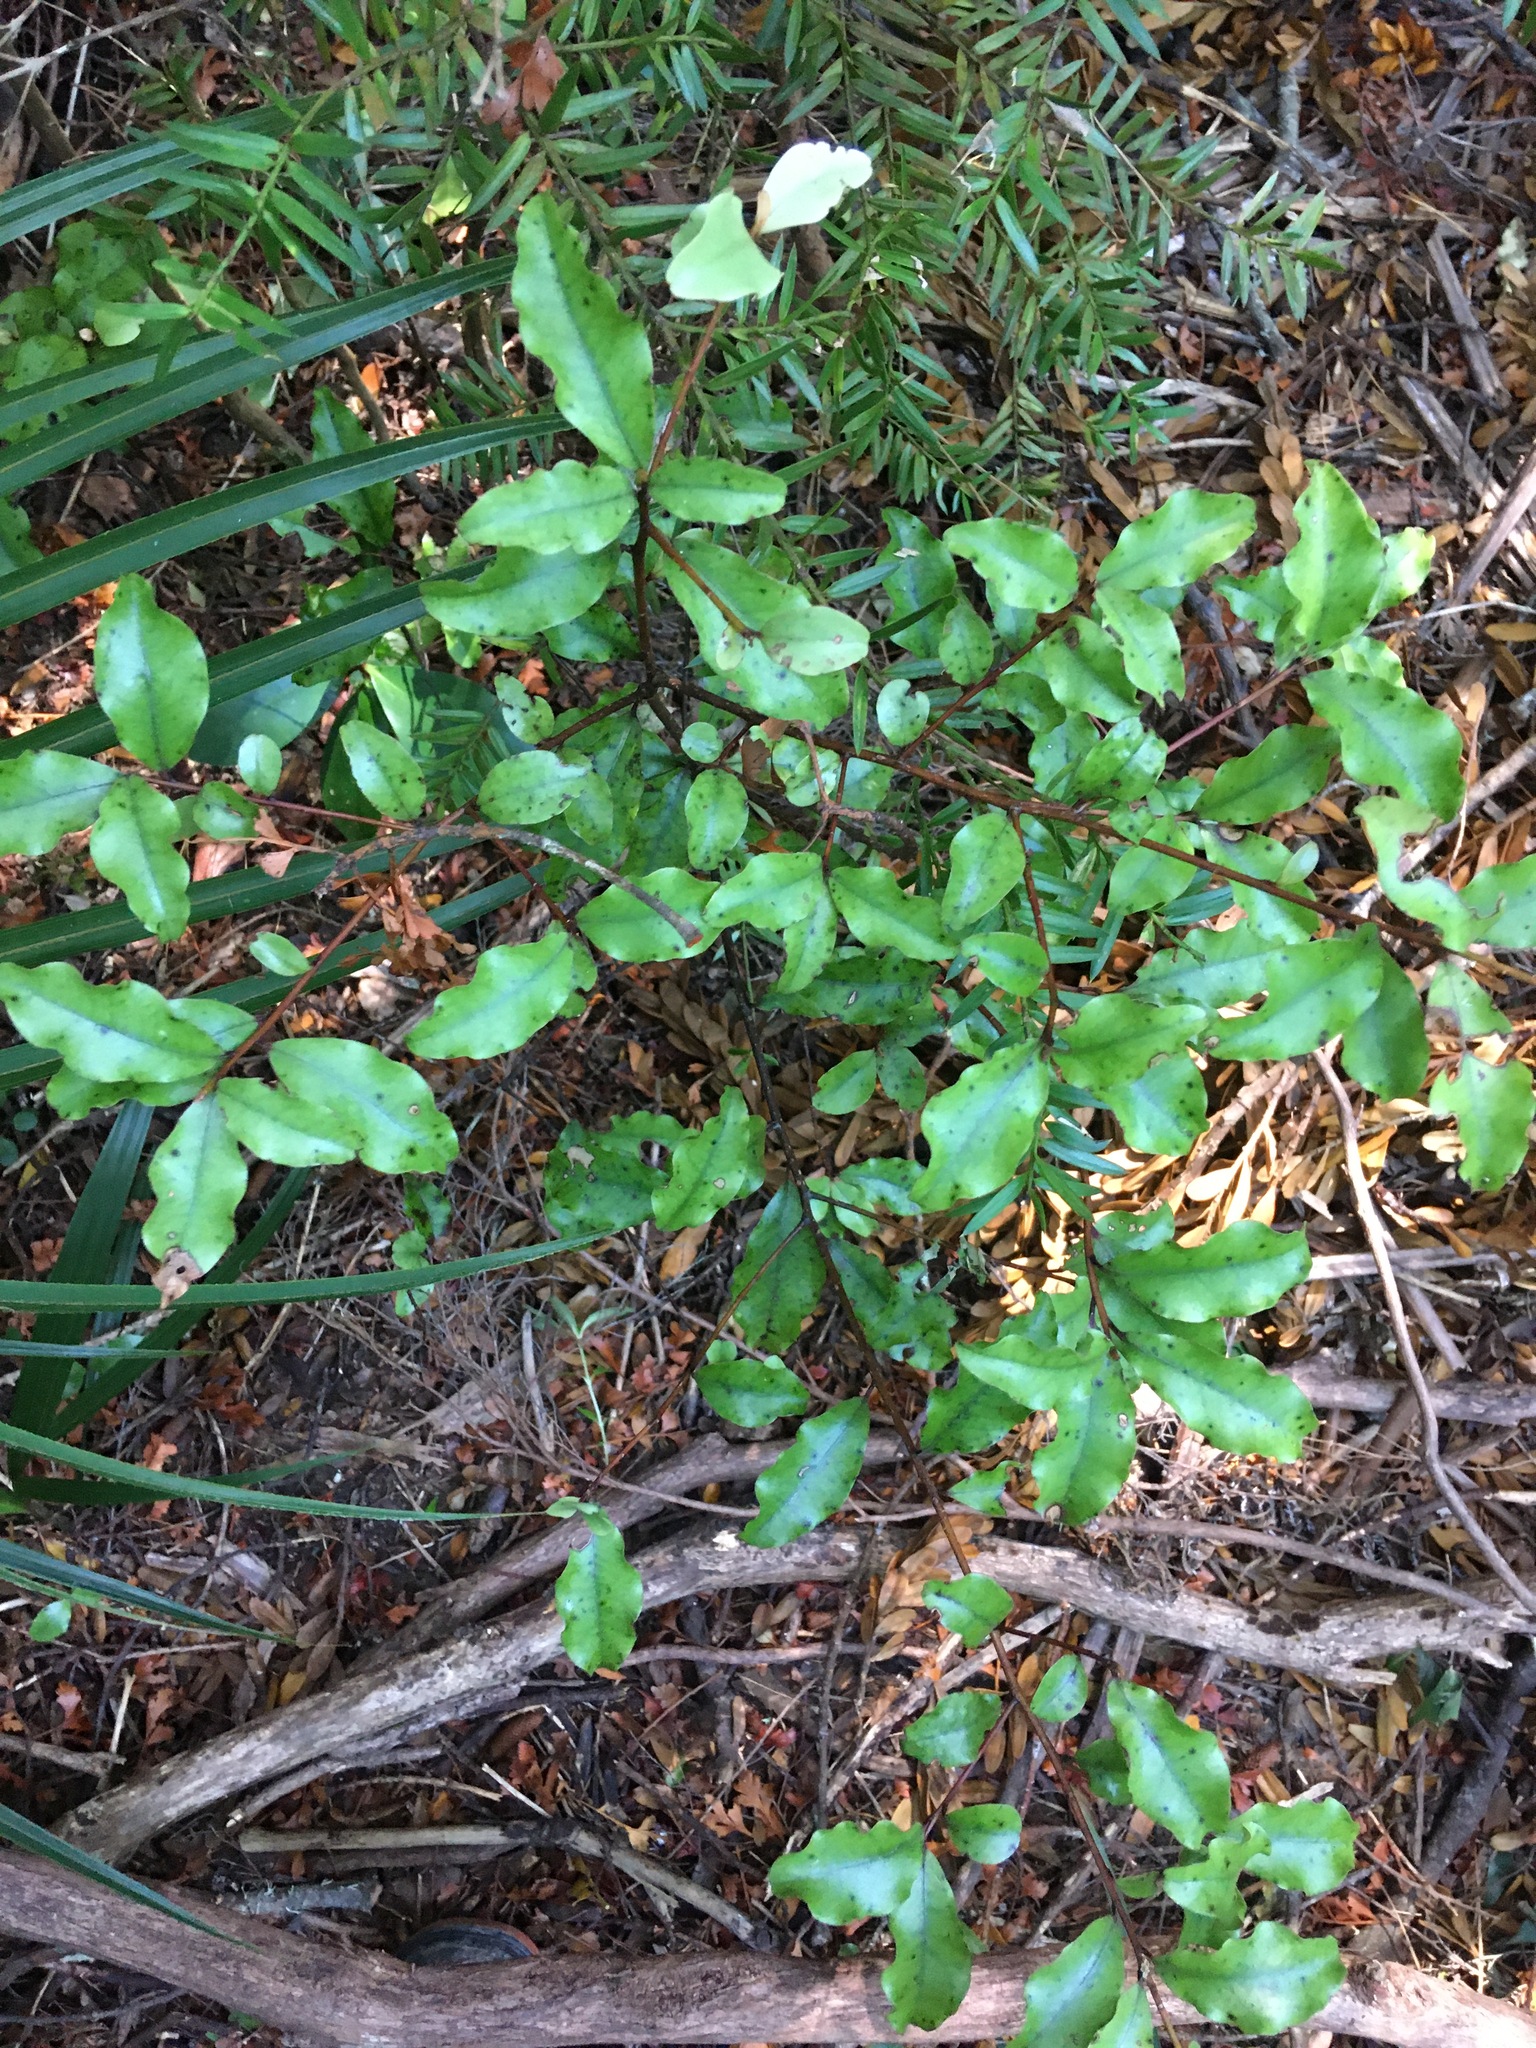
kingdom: Plantae
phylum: Tracheophyta
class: Magnoliopsida
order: Ericales
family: Primulaceae
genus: Myrsine
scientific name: Myrsine australis
